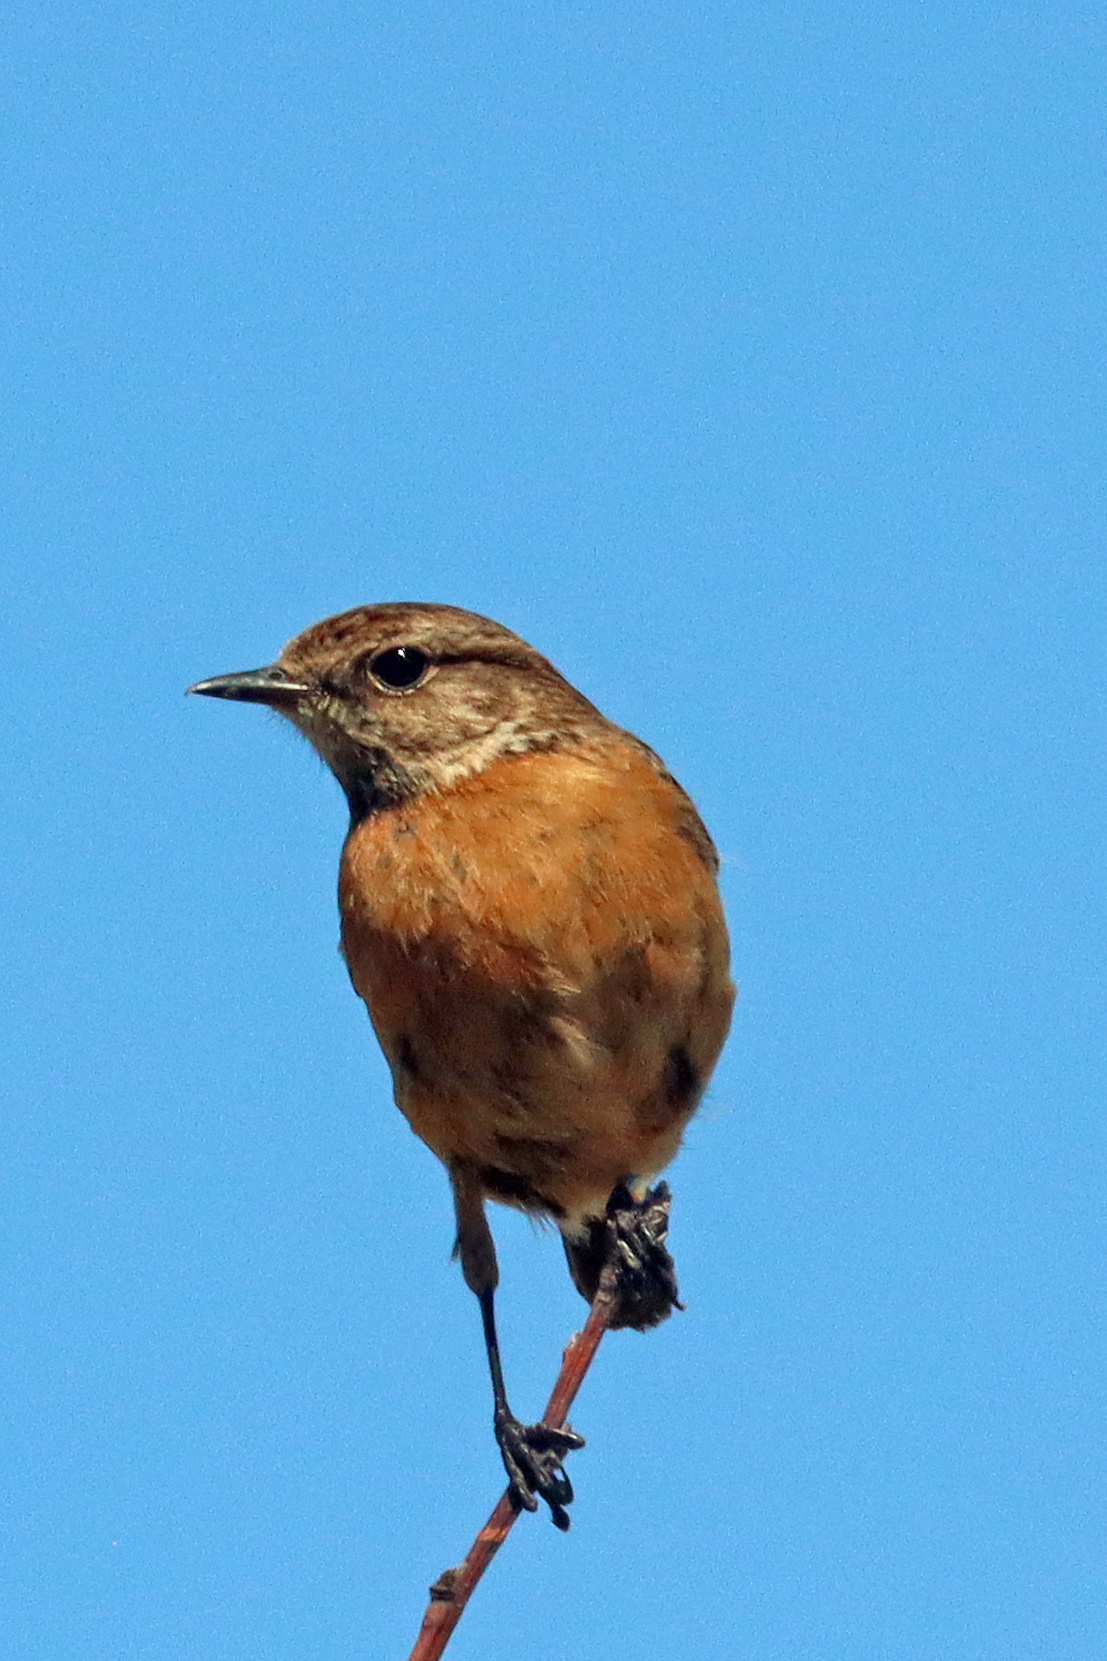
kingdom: Animalia
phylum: Chordata
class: Aves
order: Passeriformes
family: Muscicapidae
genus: Saxicola
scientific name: Saxicola rubicola
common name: European stonechat
